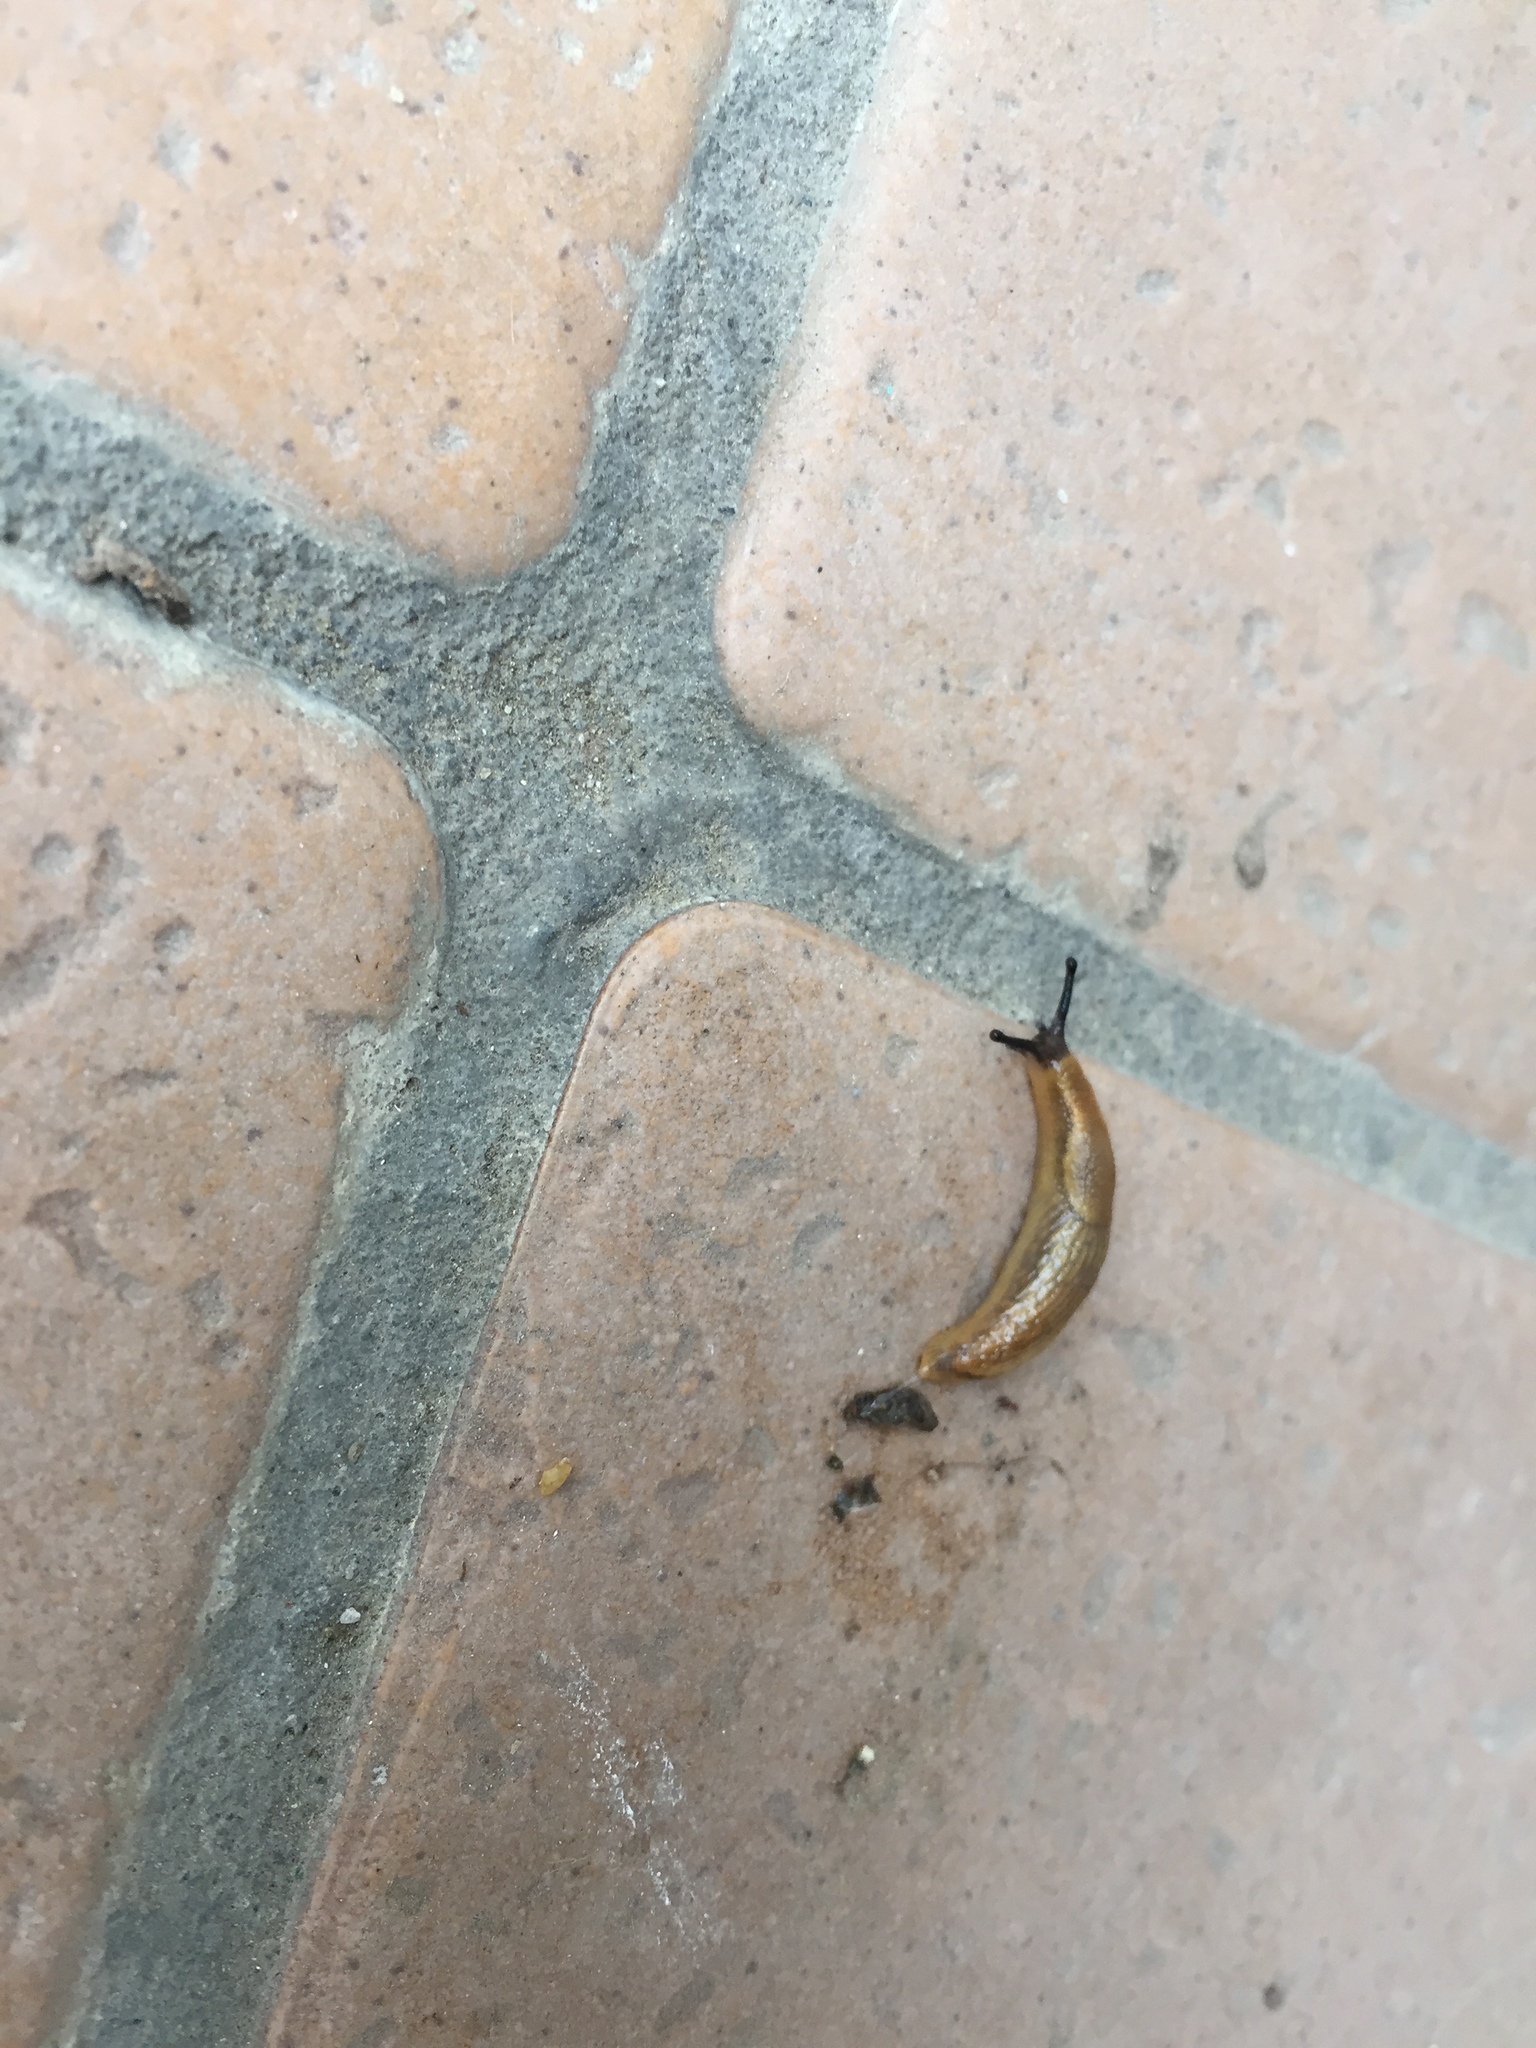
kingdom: Animalia
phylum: Mollusca
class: Gastropoda
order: Stylommatophora
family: Arionidae
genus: Arion
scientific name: Arion rufus
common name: Chocolate arion
